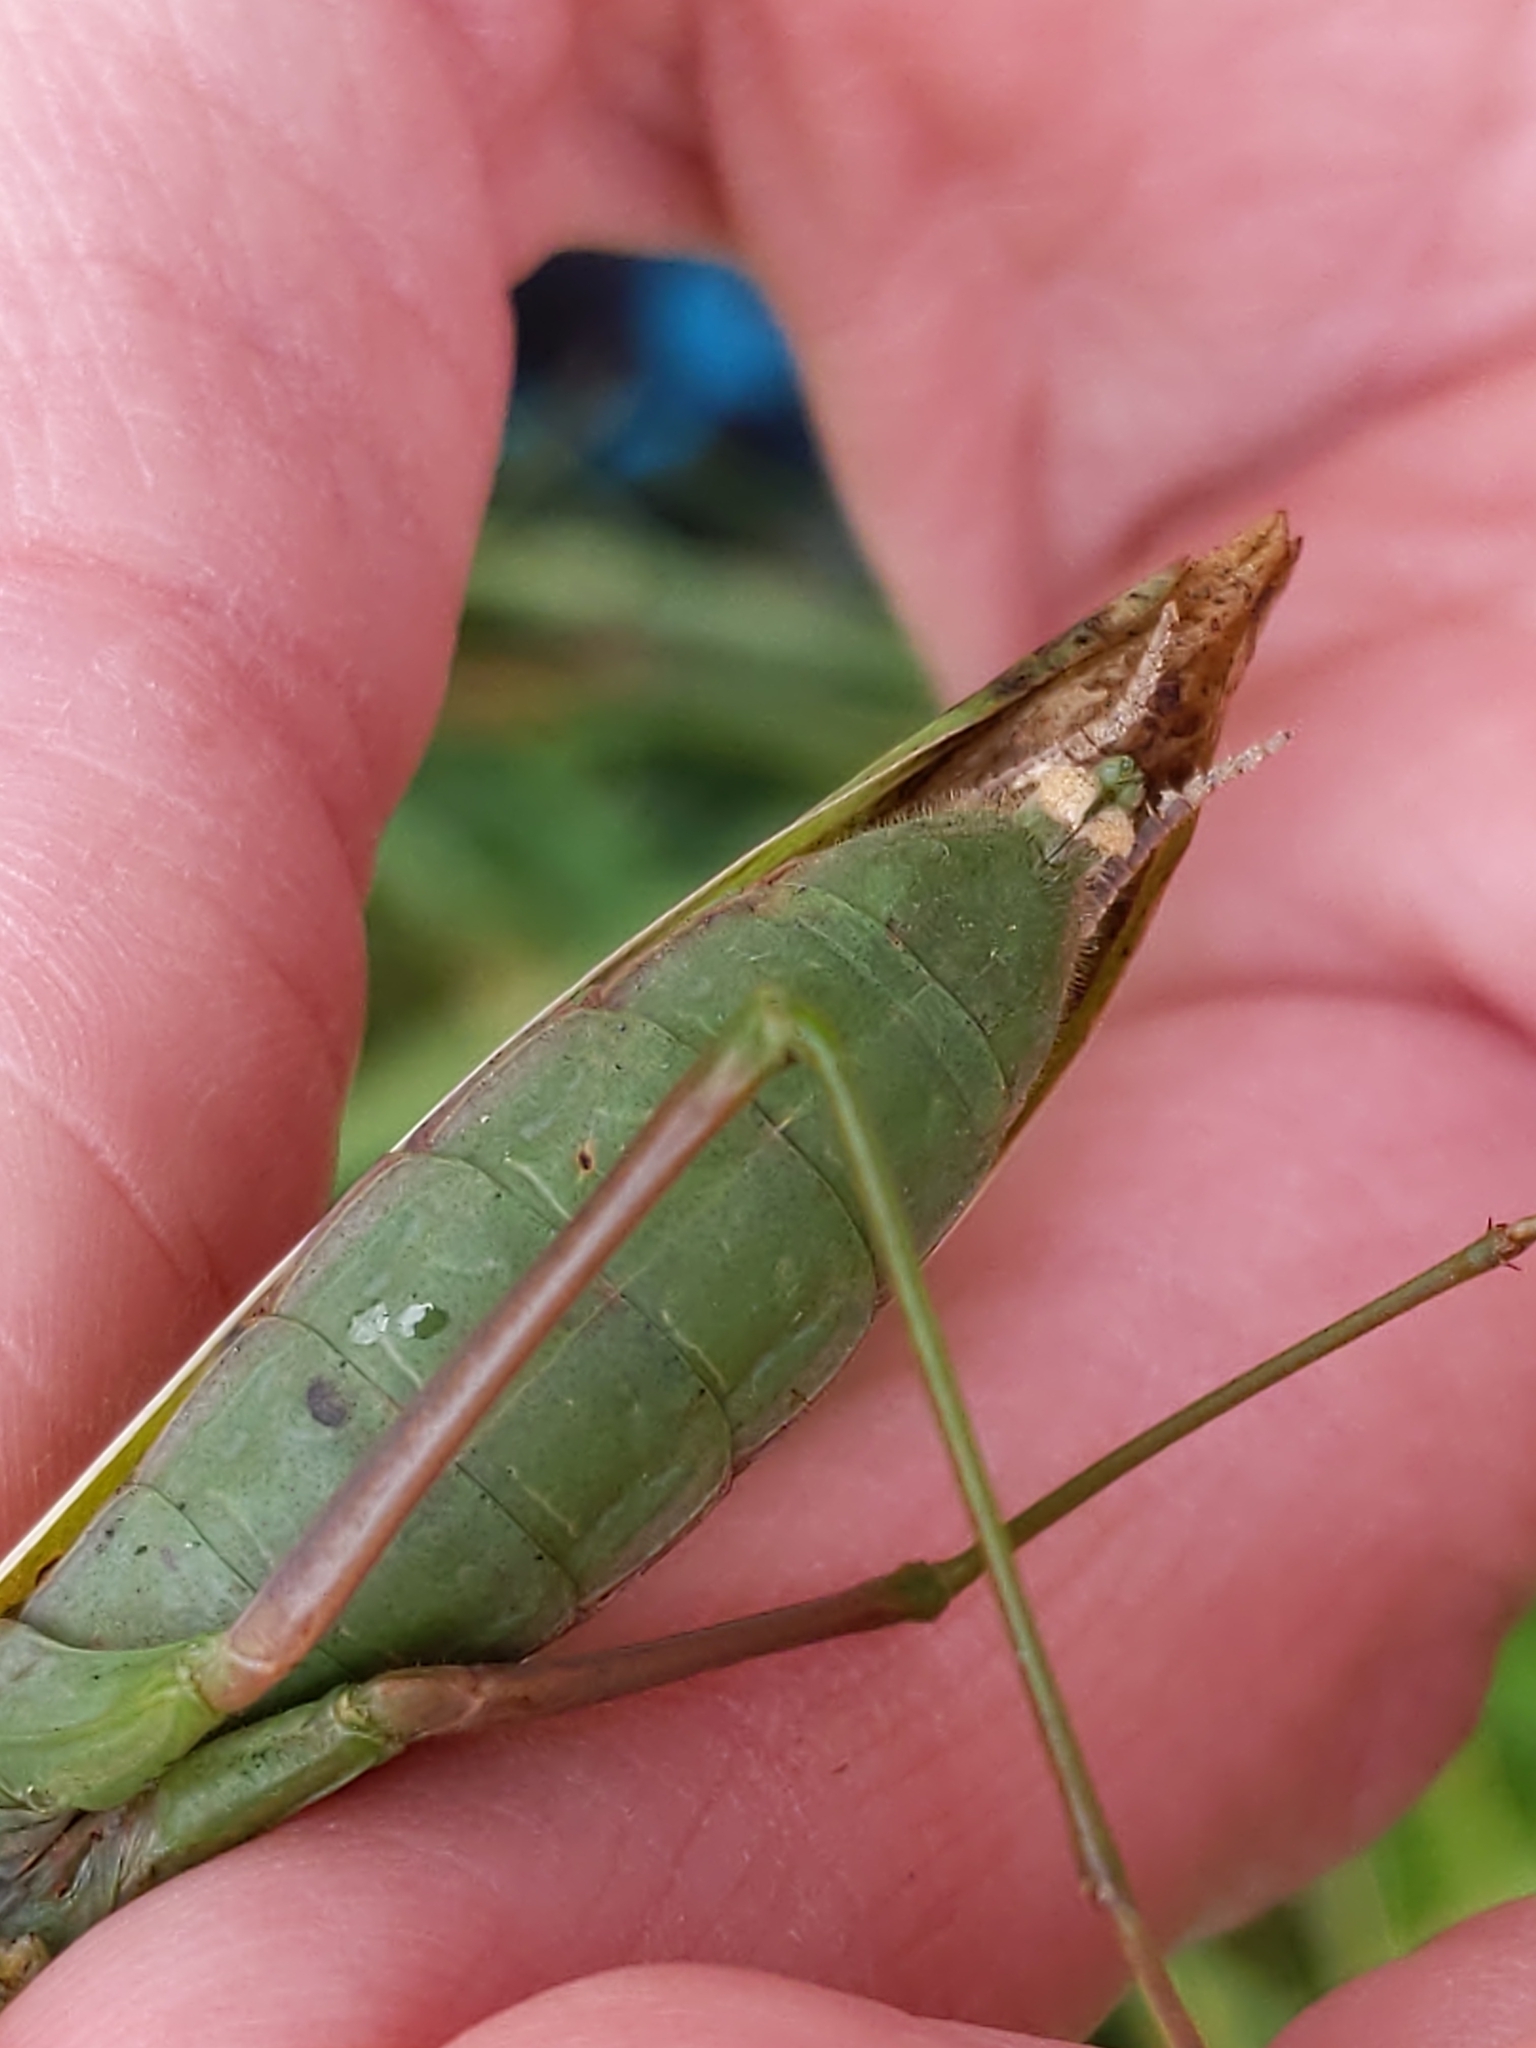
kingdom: Animalia
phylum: Arthropoda
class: Insecta
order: Mantodea
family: Mantidae
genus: Mantis
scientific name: Mantis religiosa
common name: Praying mantis
